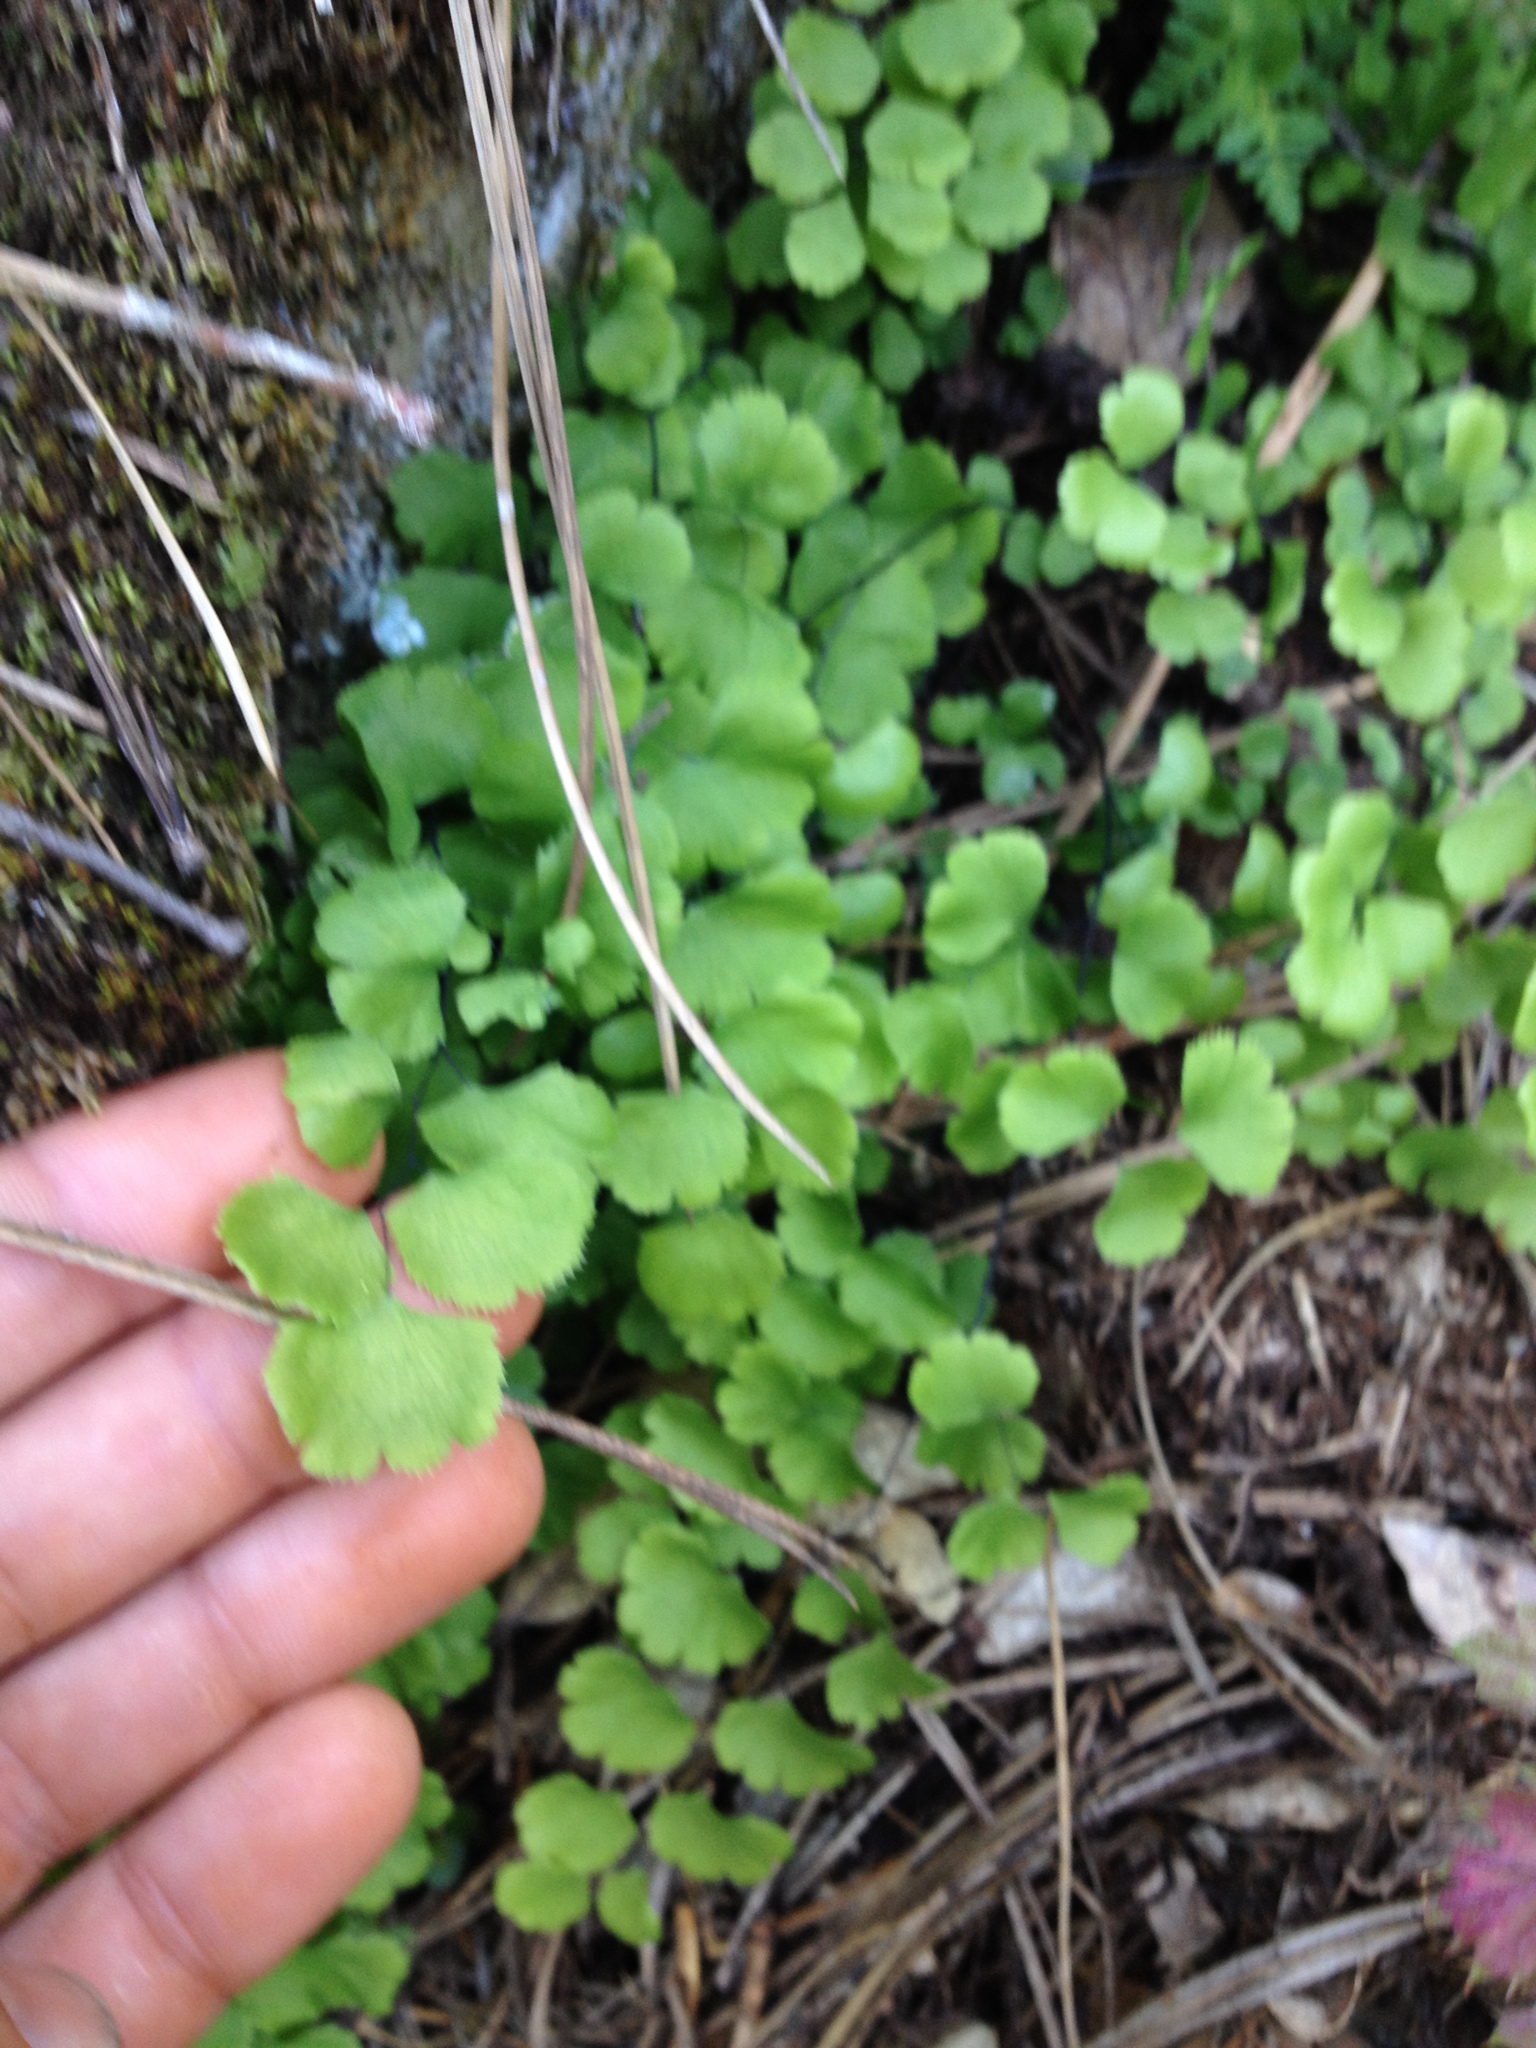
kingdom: Plantae
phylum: Tracheophyta
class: Polypodiopsida
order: Polypodiales
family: Pteridaceae
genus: Adiantum
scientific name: Adiantum jordanii
